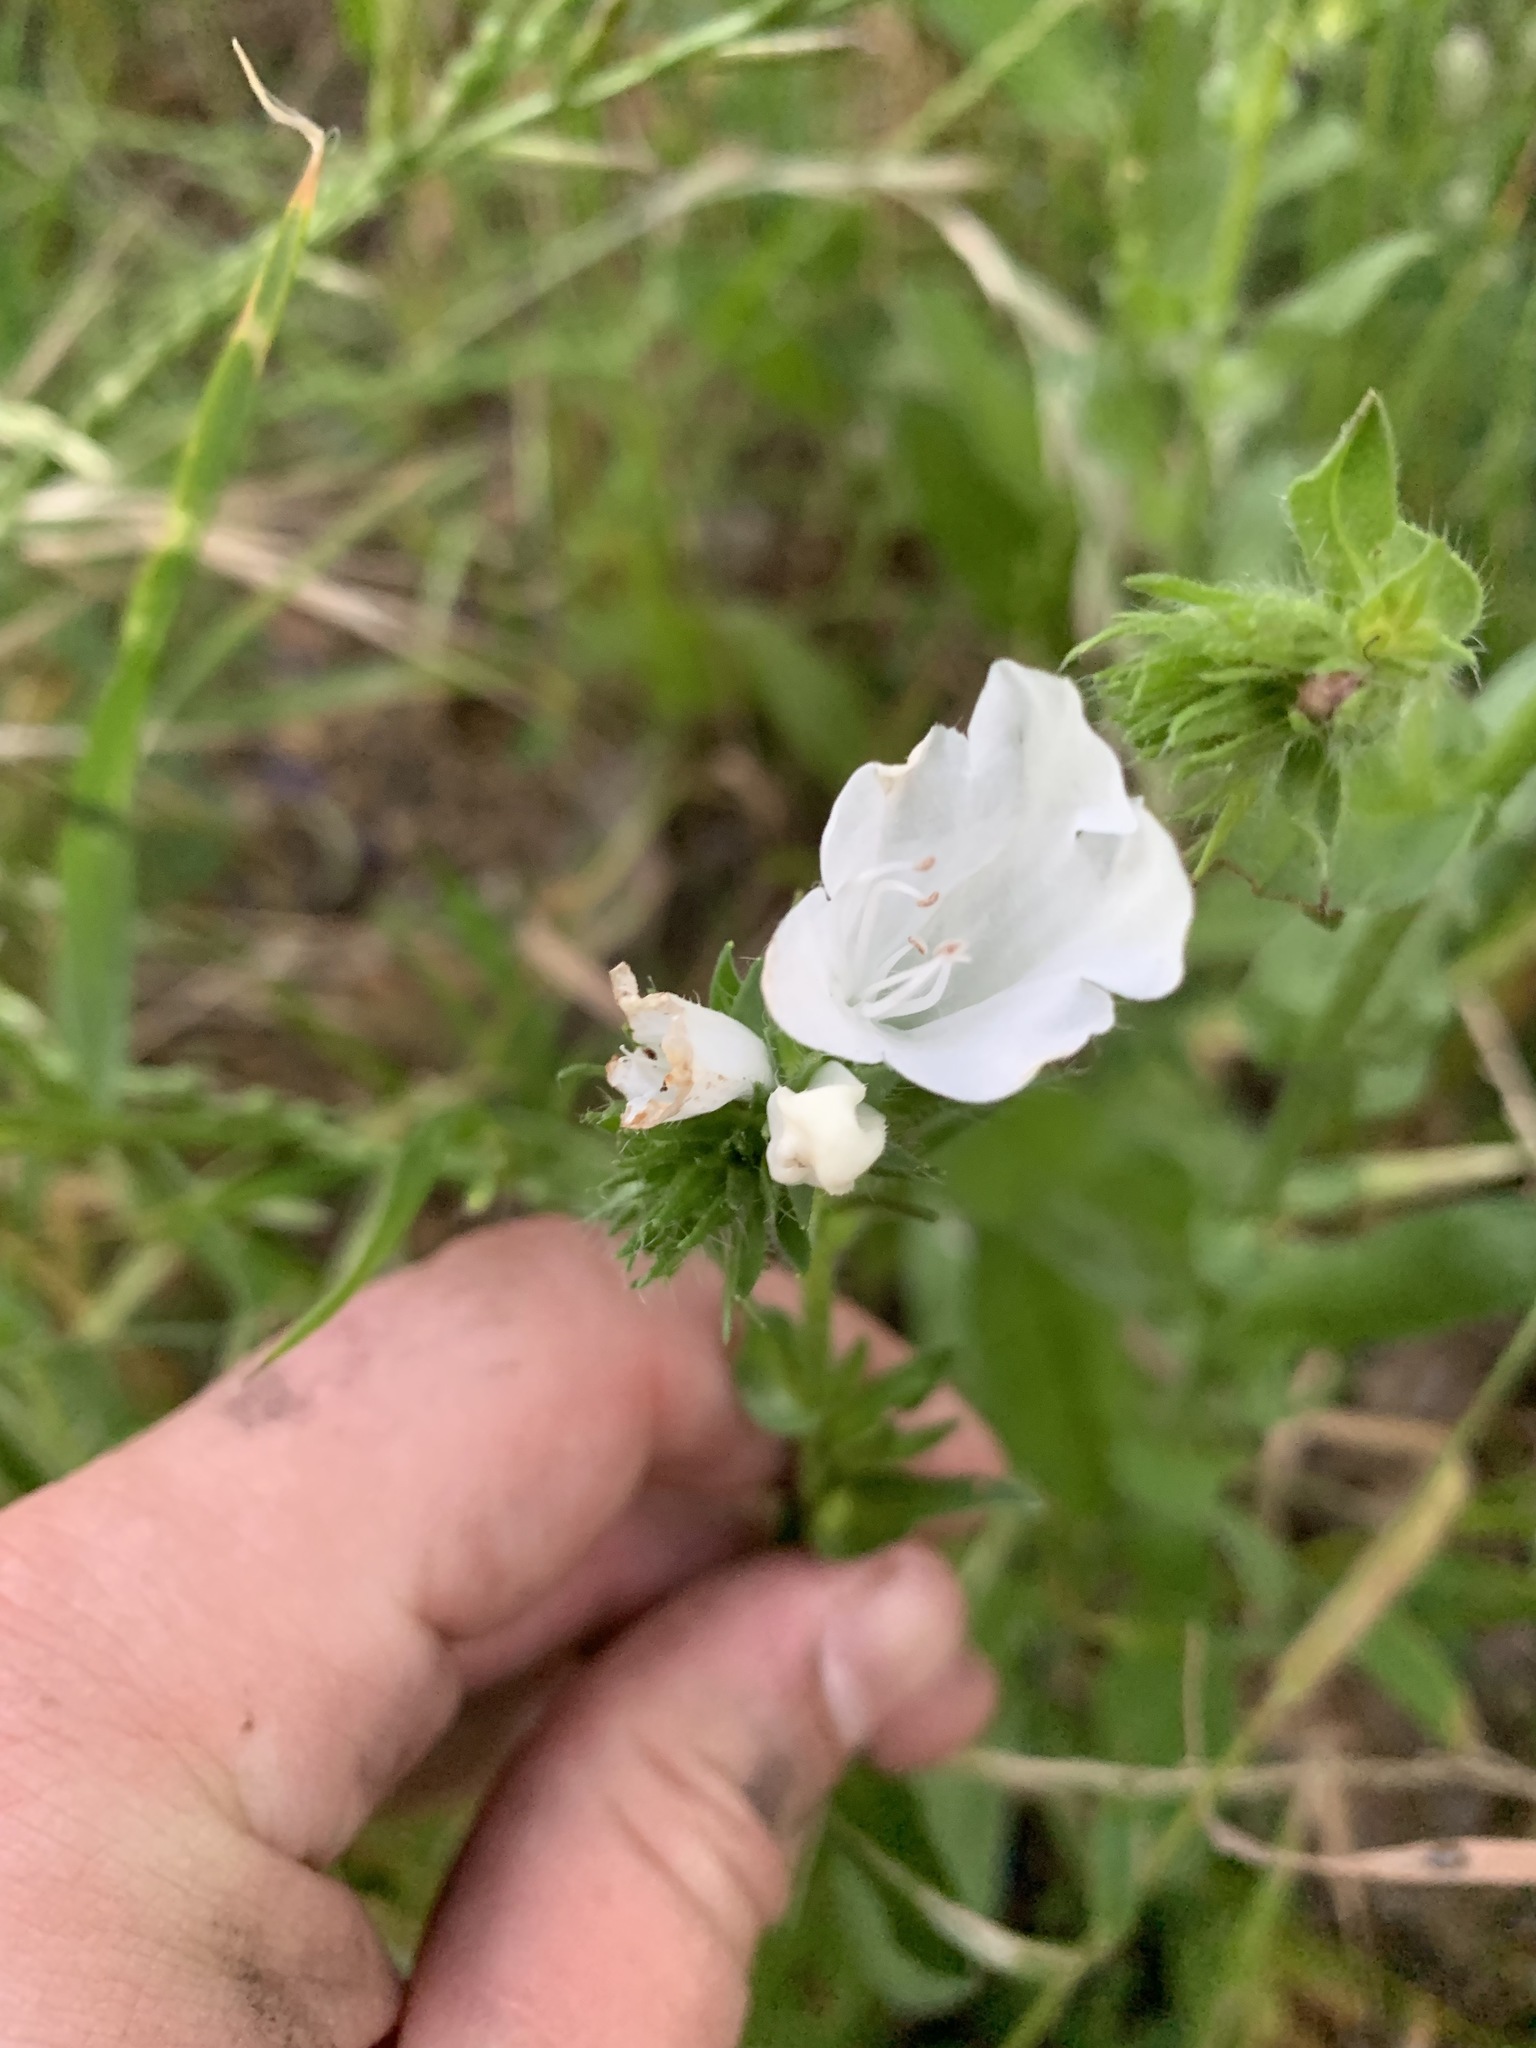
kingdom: Plantae
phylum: Tracheophyta
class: Magnoliopsida
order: Boraginales
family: Boraginaceae
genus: Echium
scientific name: Echium plantagineum
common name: Purple viper's-bugloss
